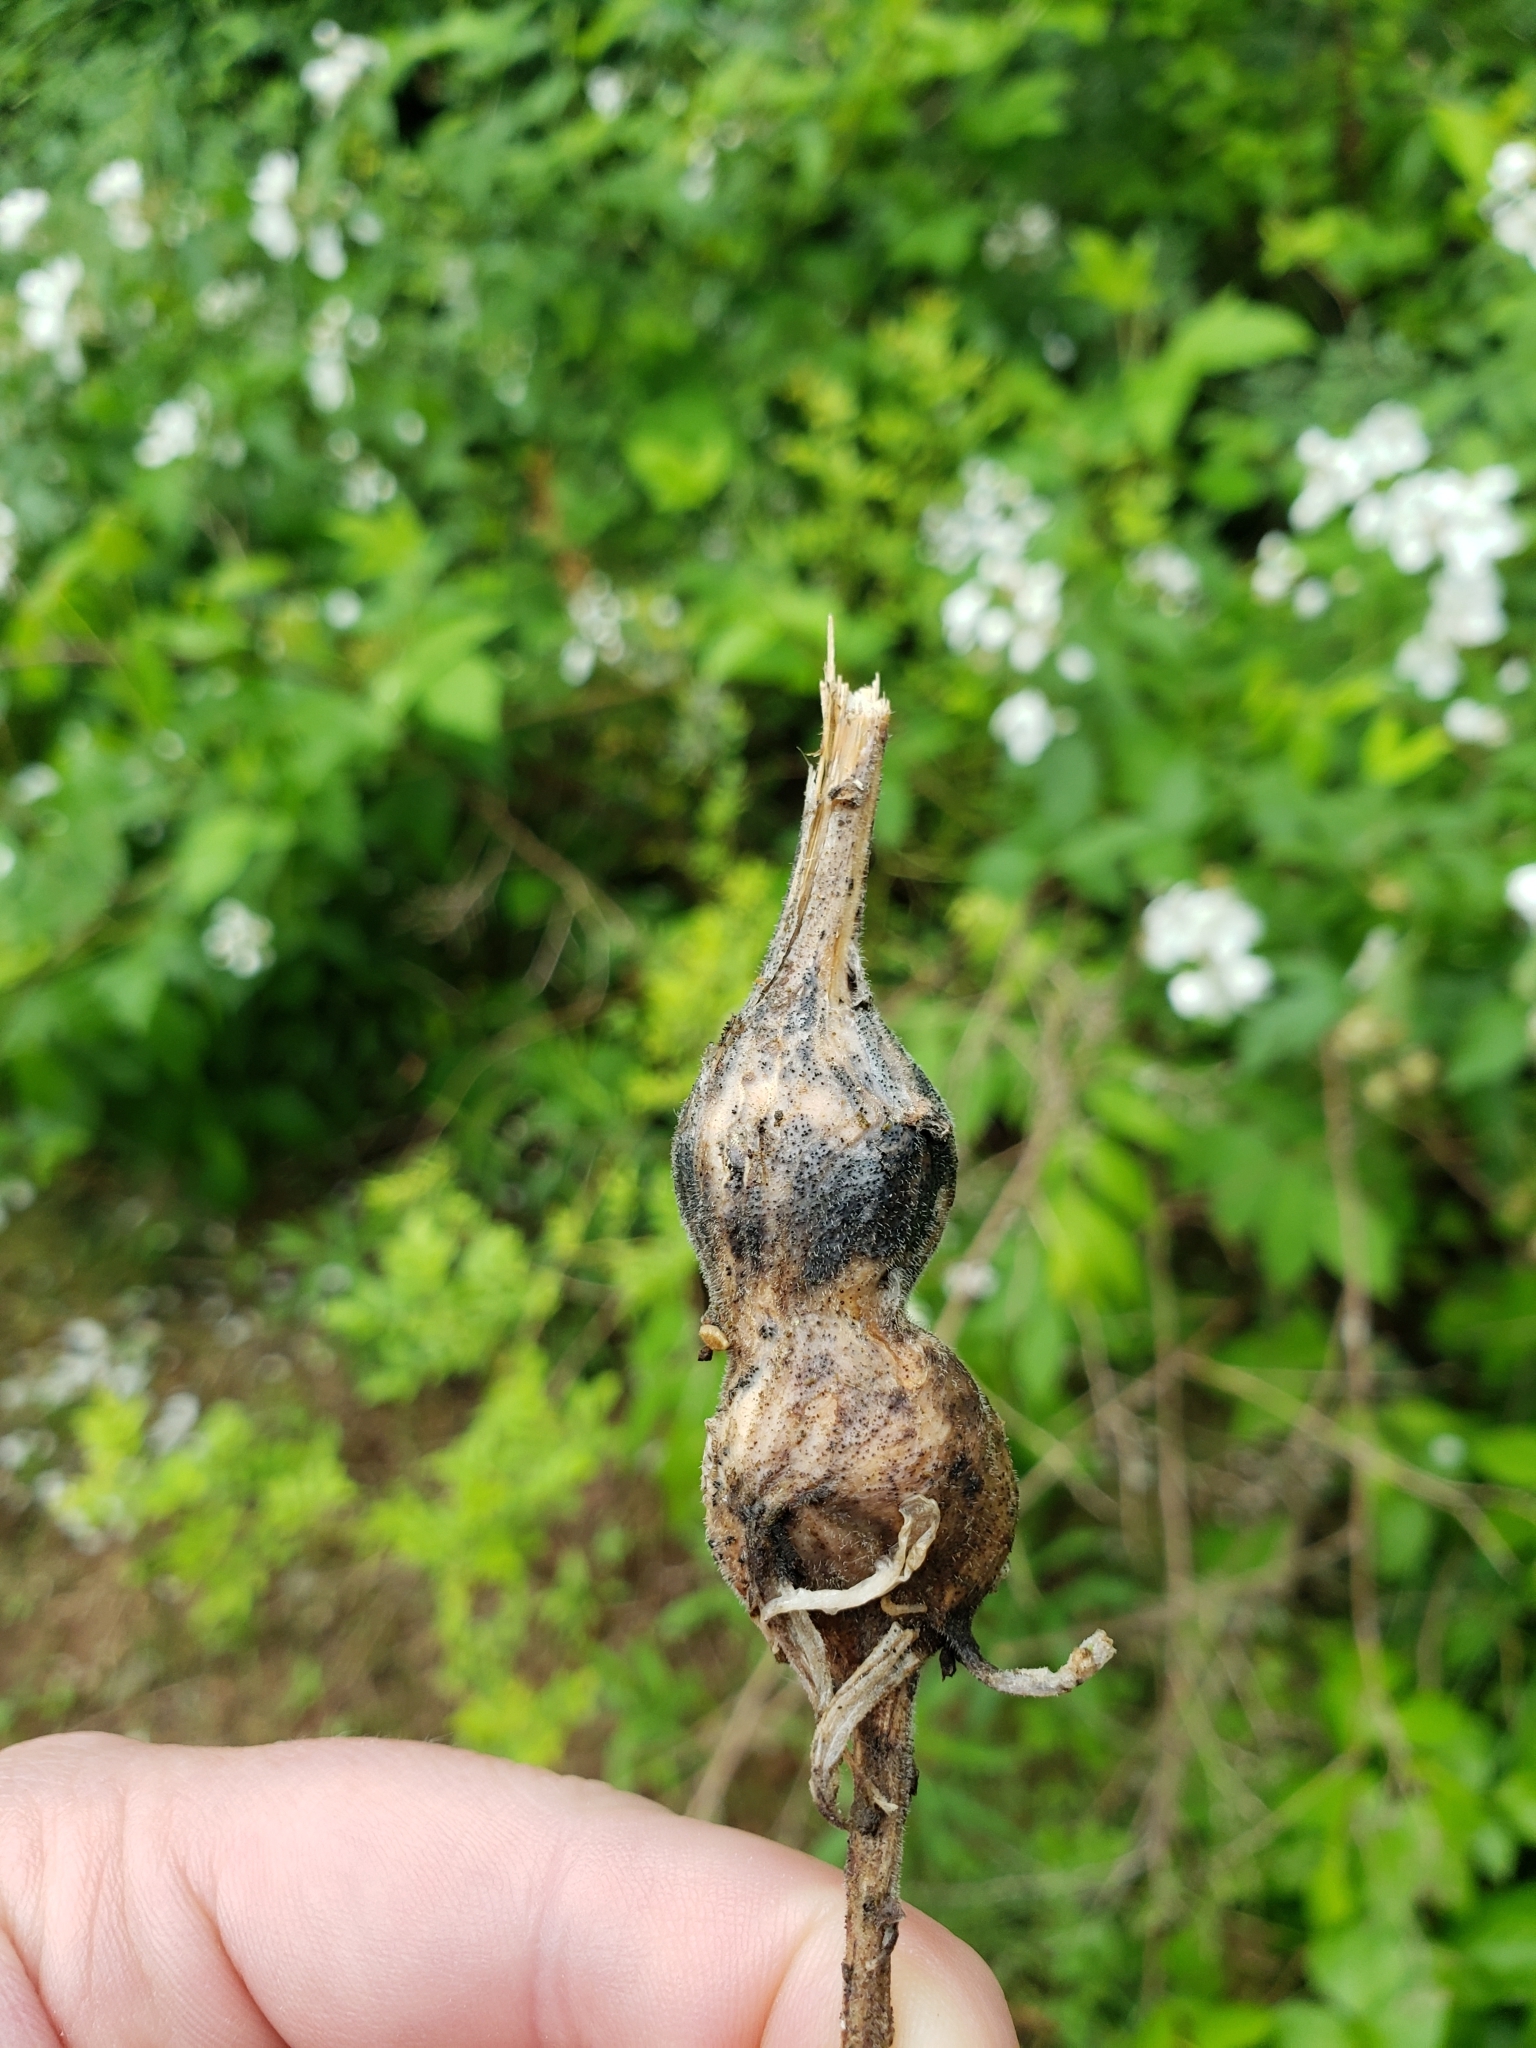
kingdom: Animalia
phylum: Arthropoda
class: Insecta
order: Diptera
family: Tephritidae
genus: Eurosta
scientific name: Eurosta solidaginis
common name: Goldenrod gall fly
